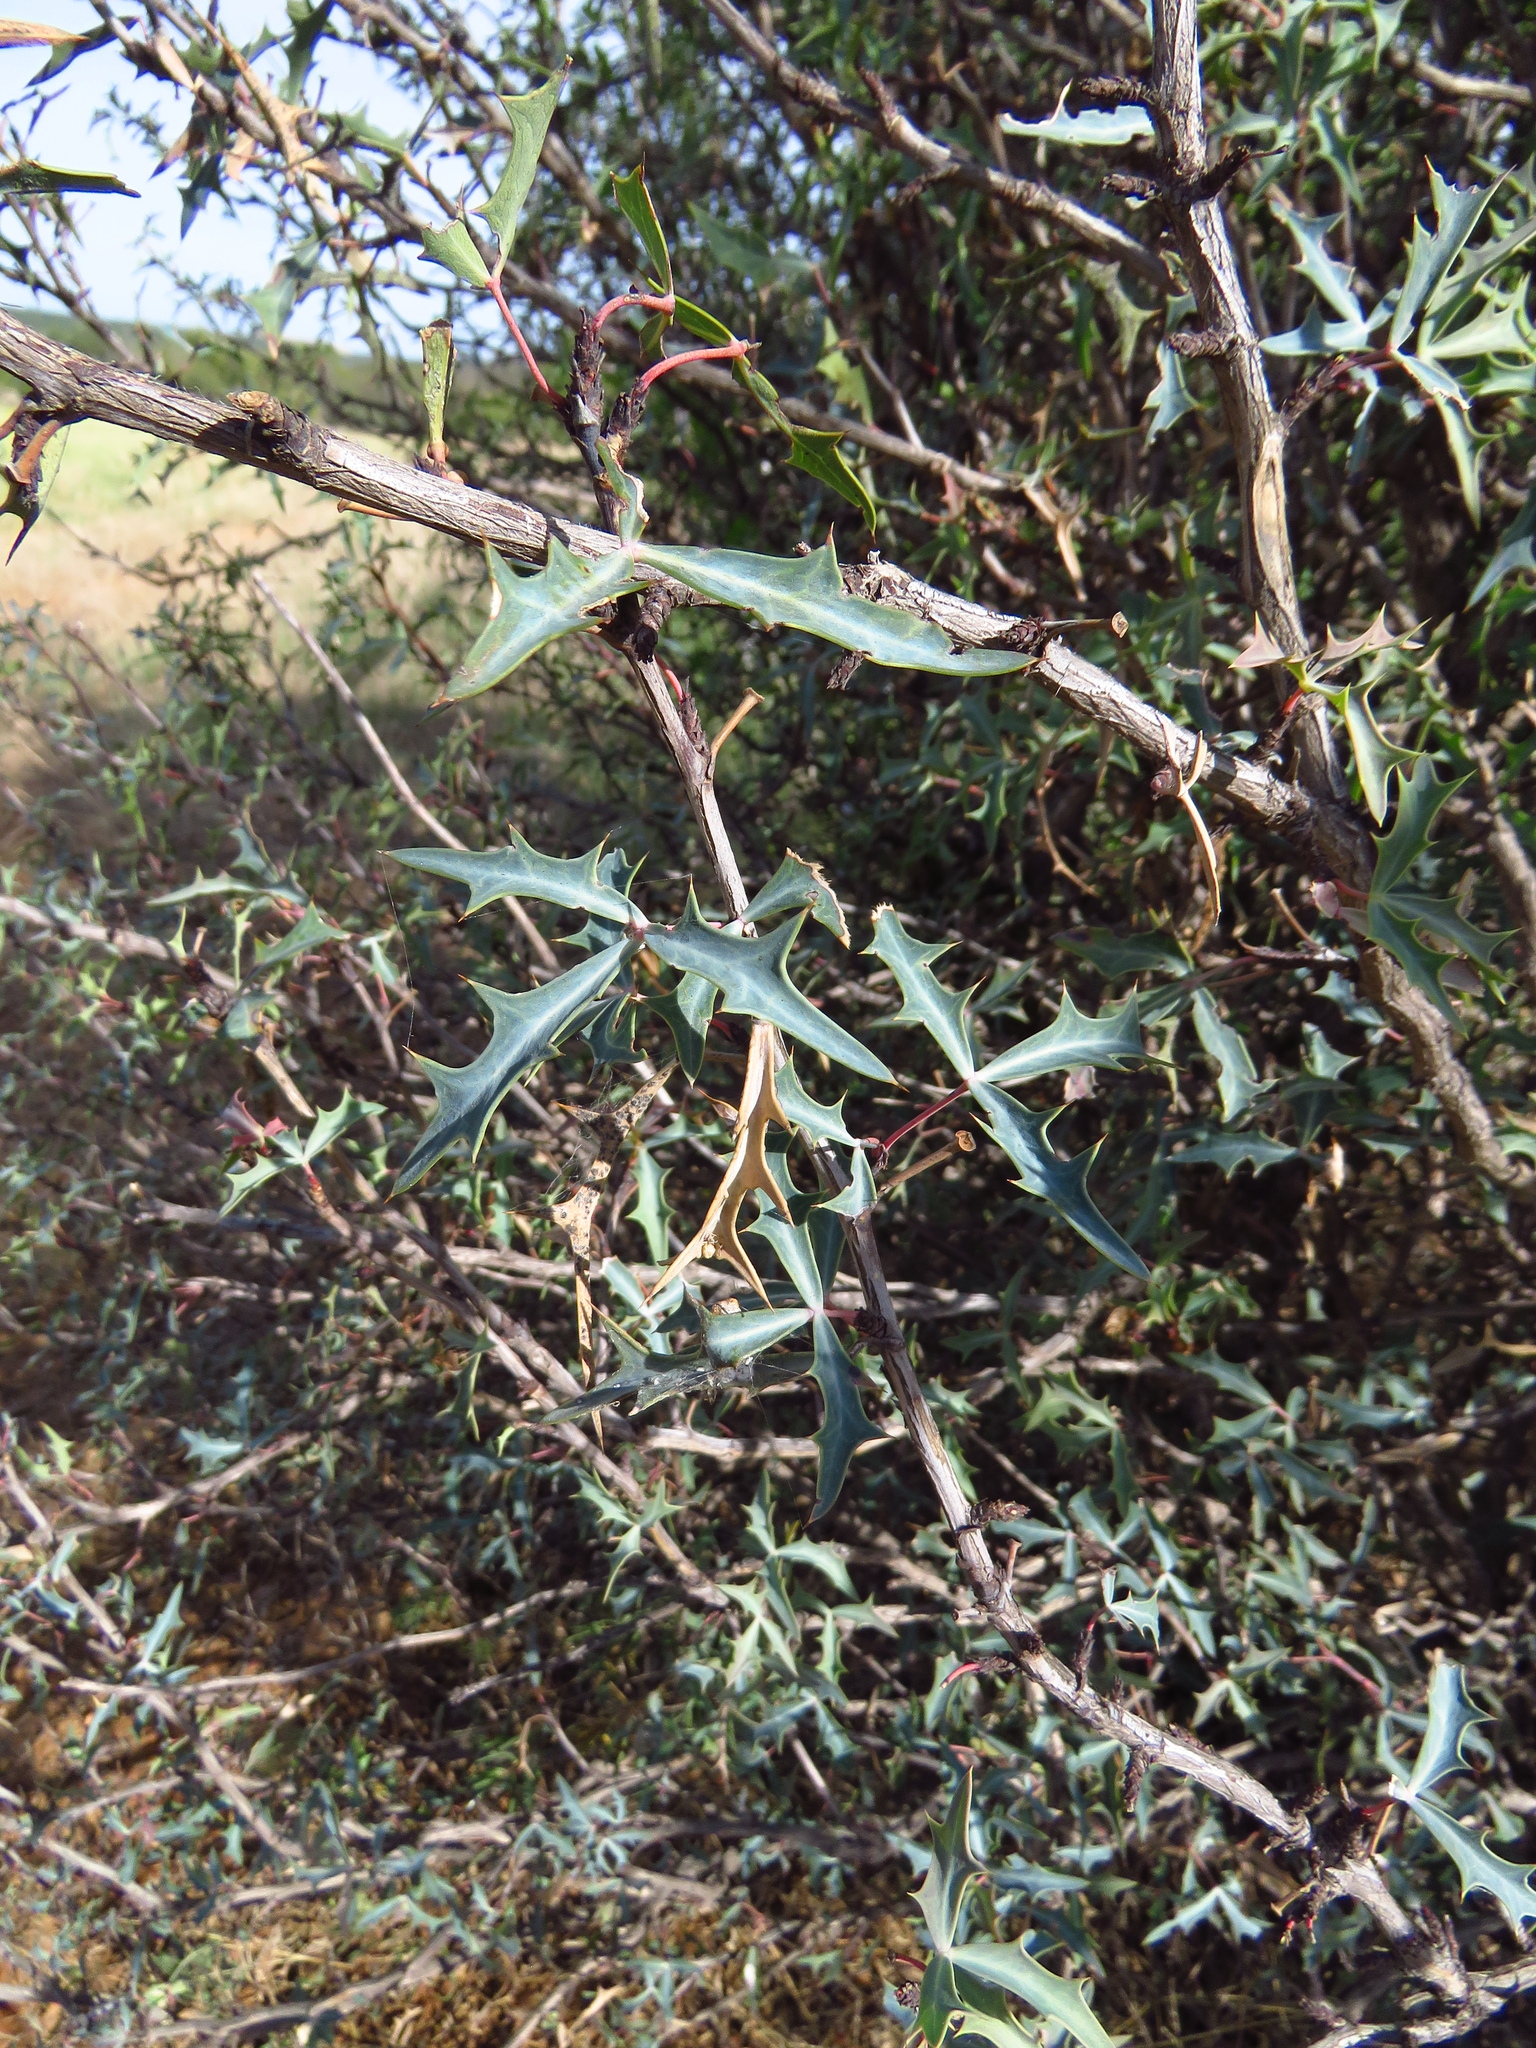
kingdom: Plantae
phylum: Tracheophyta
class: Magnoliopsida
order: Ranunculales
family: Berberidaceae
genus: Alloberberis
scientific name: Alloberberis trifoliolata
